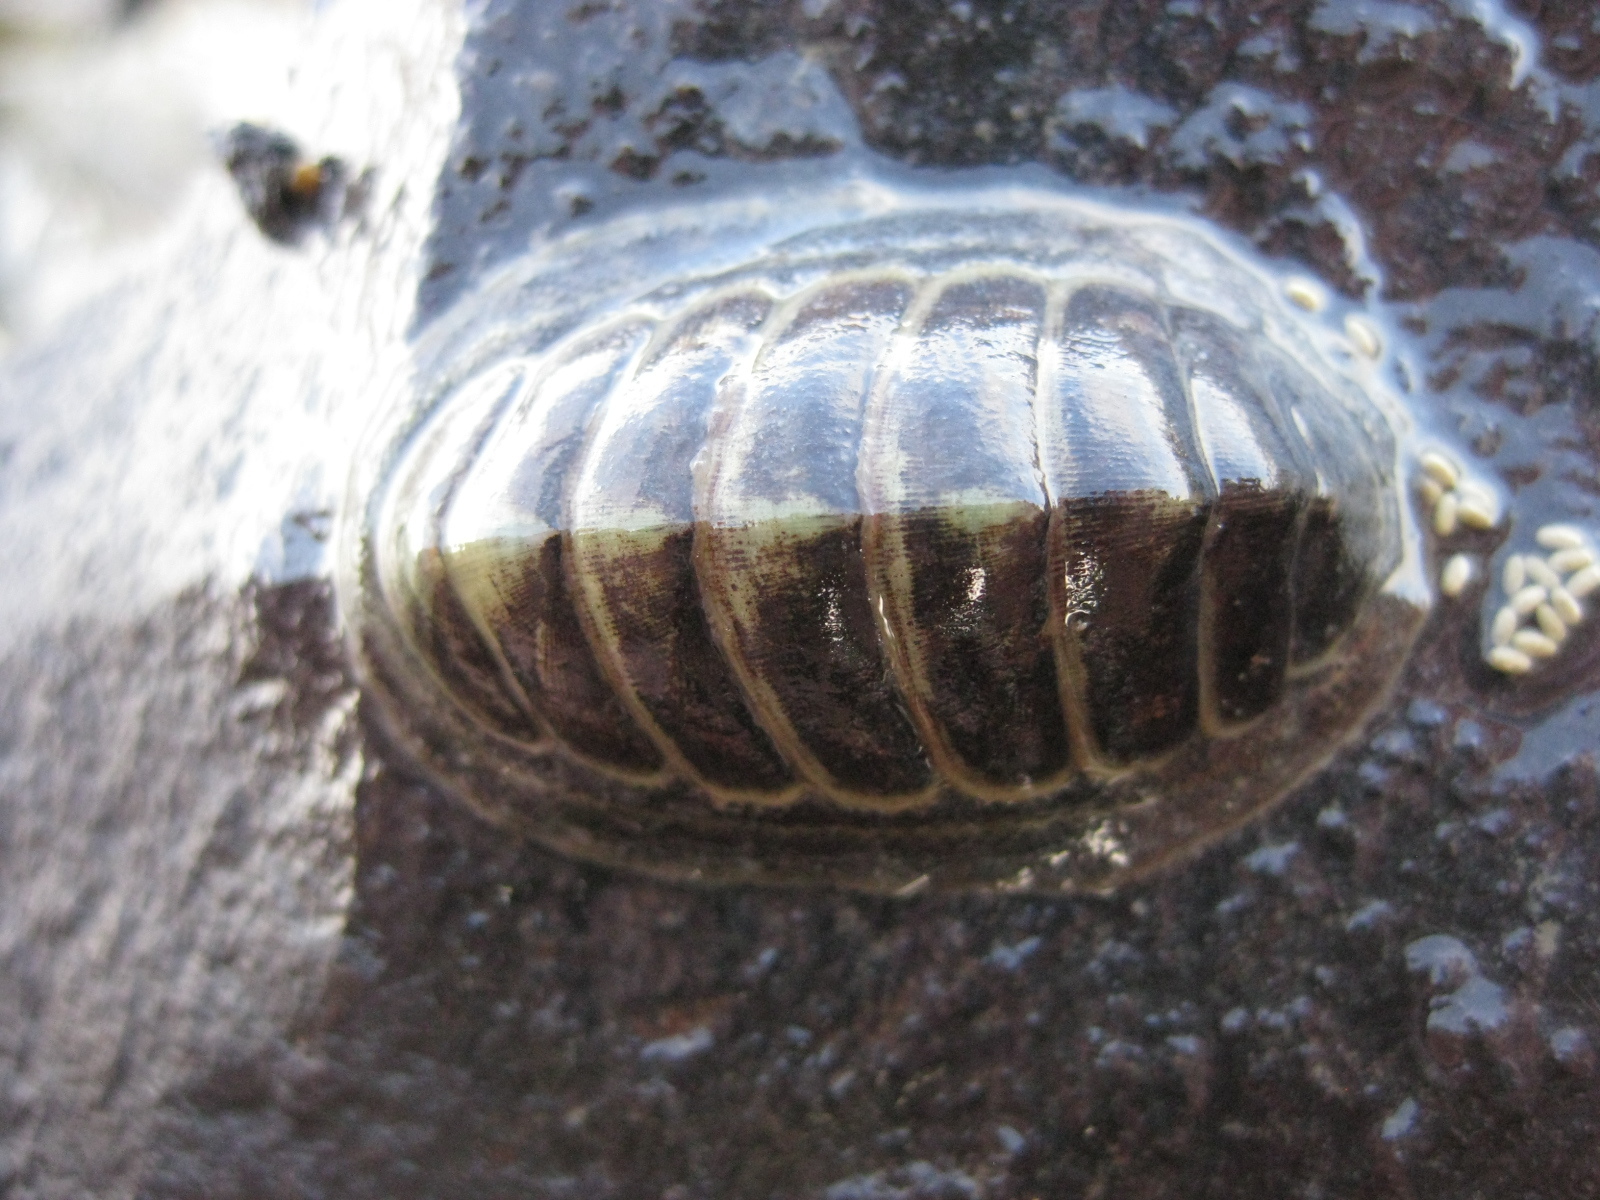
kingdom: Animalia
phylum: Mollusca
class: Polyplacophora
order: Chitonida
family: Chitonidae
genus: Chiton
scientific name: Chiton glaucus
